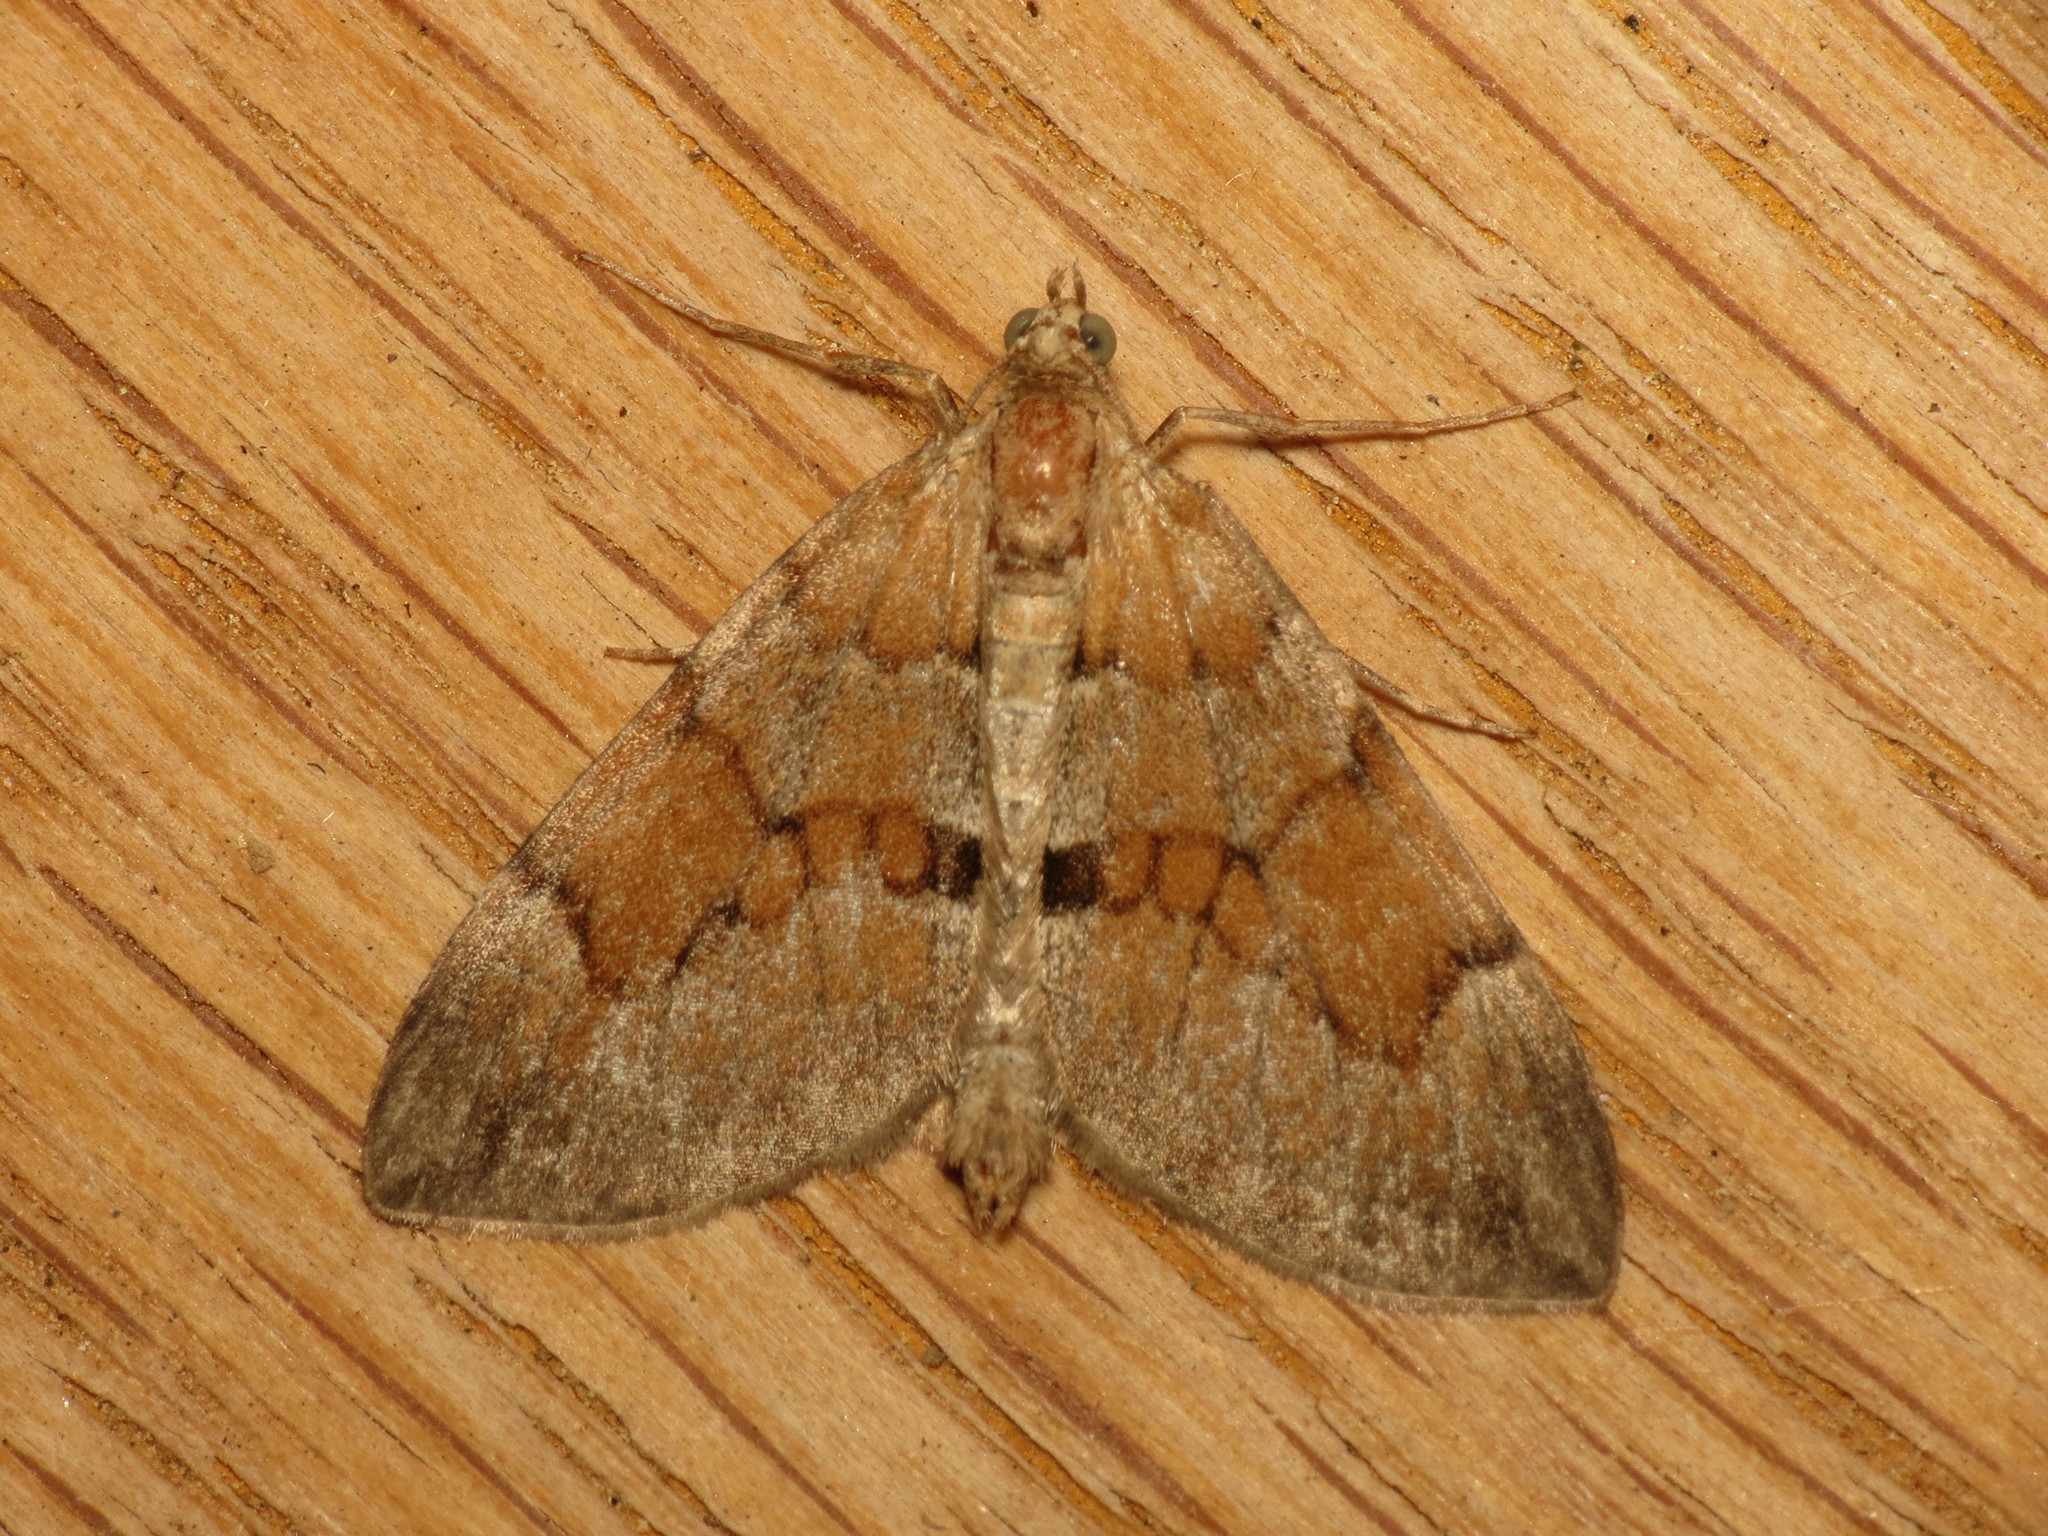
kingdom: Animalia
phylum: Arthropoda
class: Insecta
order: Lepidoptera
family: Geometridae
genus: Thera
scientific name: Thera obeliscata
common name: Grey pine carpet
